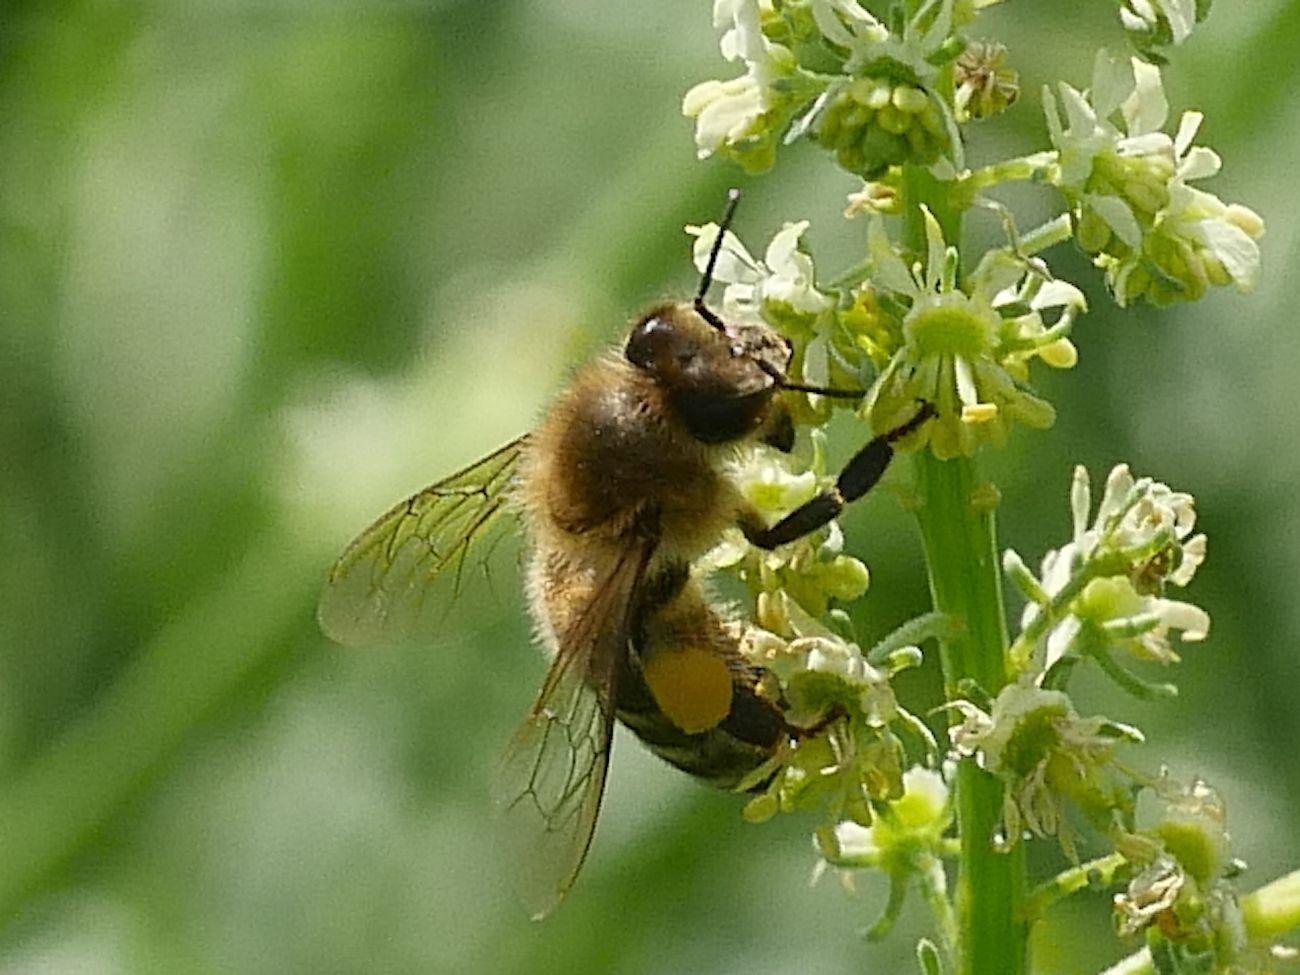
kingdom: Animalia
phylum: Arthropoda
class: Insecta
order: Hymenoptera
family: Apidae
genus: Apis
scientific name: Apis mellifera
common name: Honey bee
